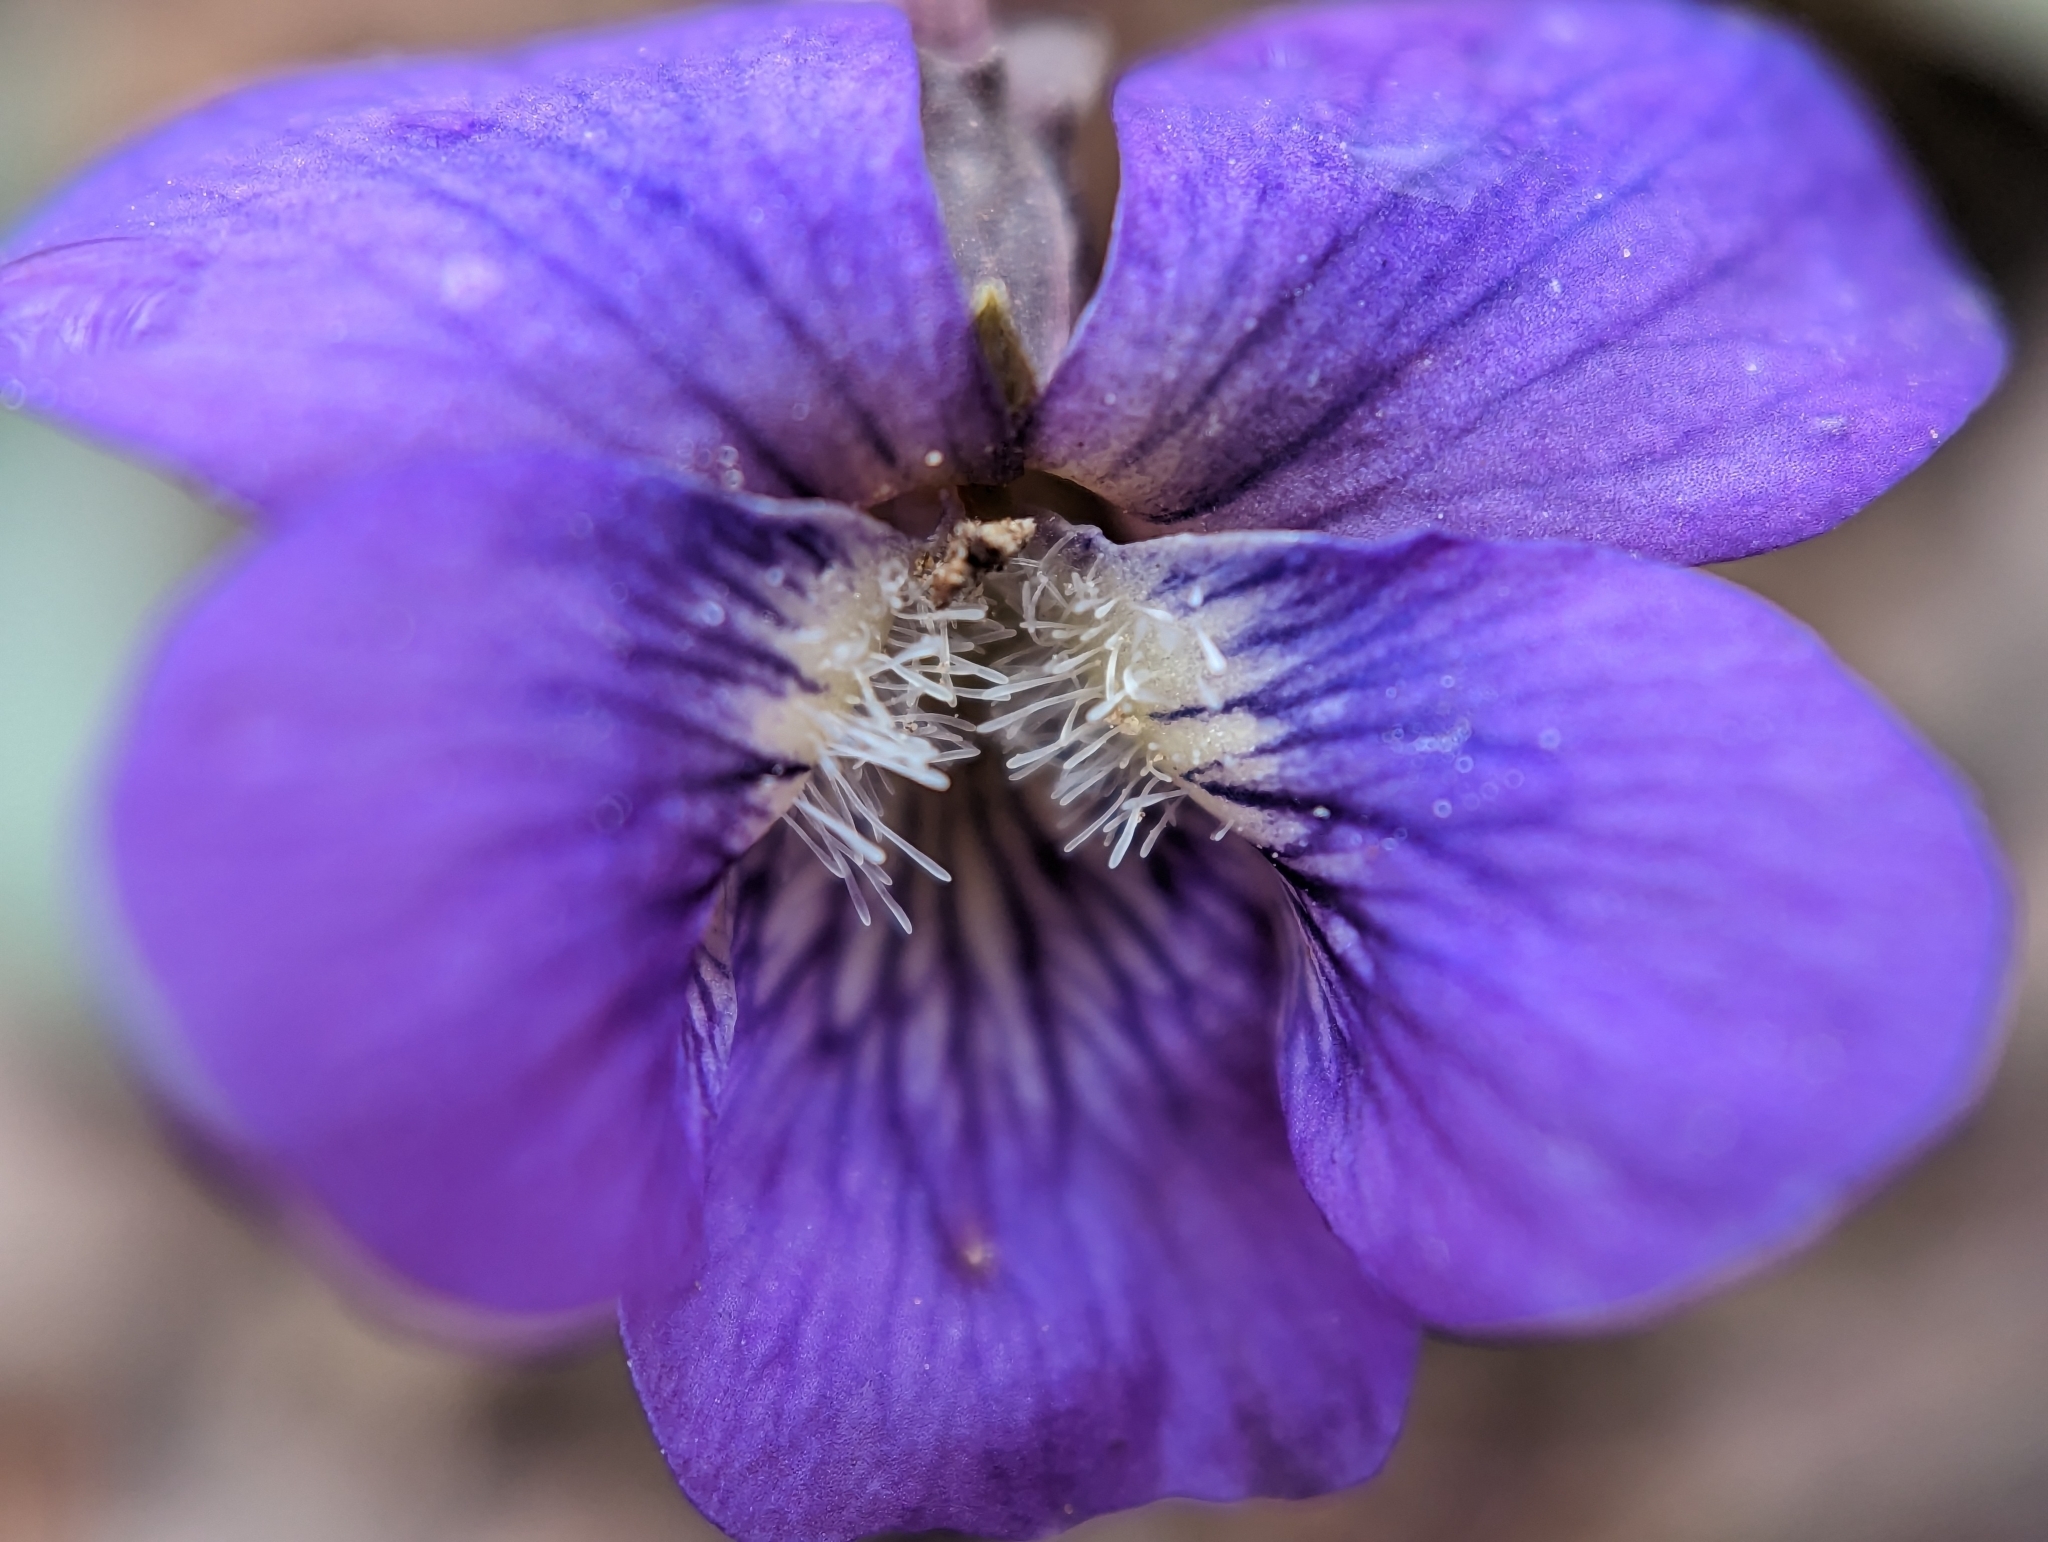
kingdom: Plantae
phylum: Tracheophyta
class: Magnoliopsida
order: Malpighiales
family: Violaceae
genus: Viola
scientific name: Viola sororia
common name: Dooryard violet
